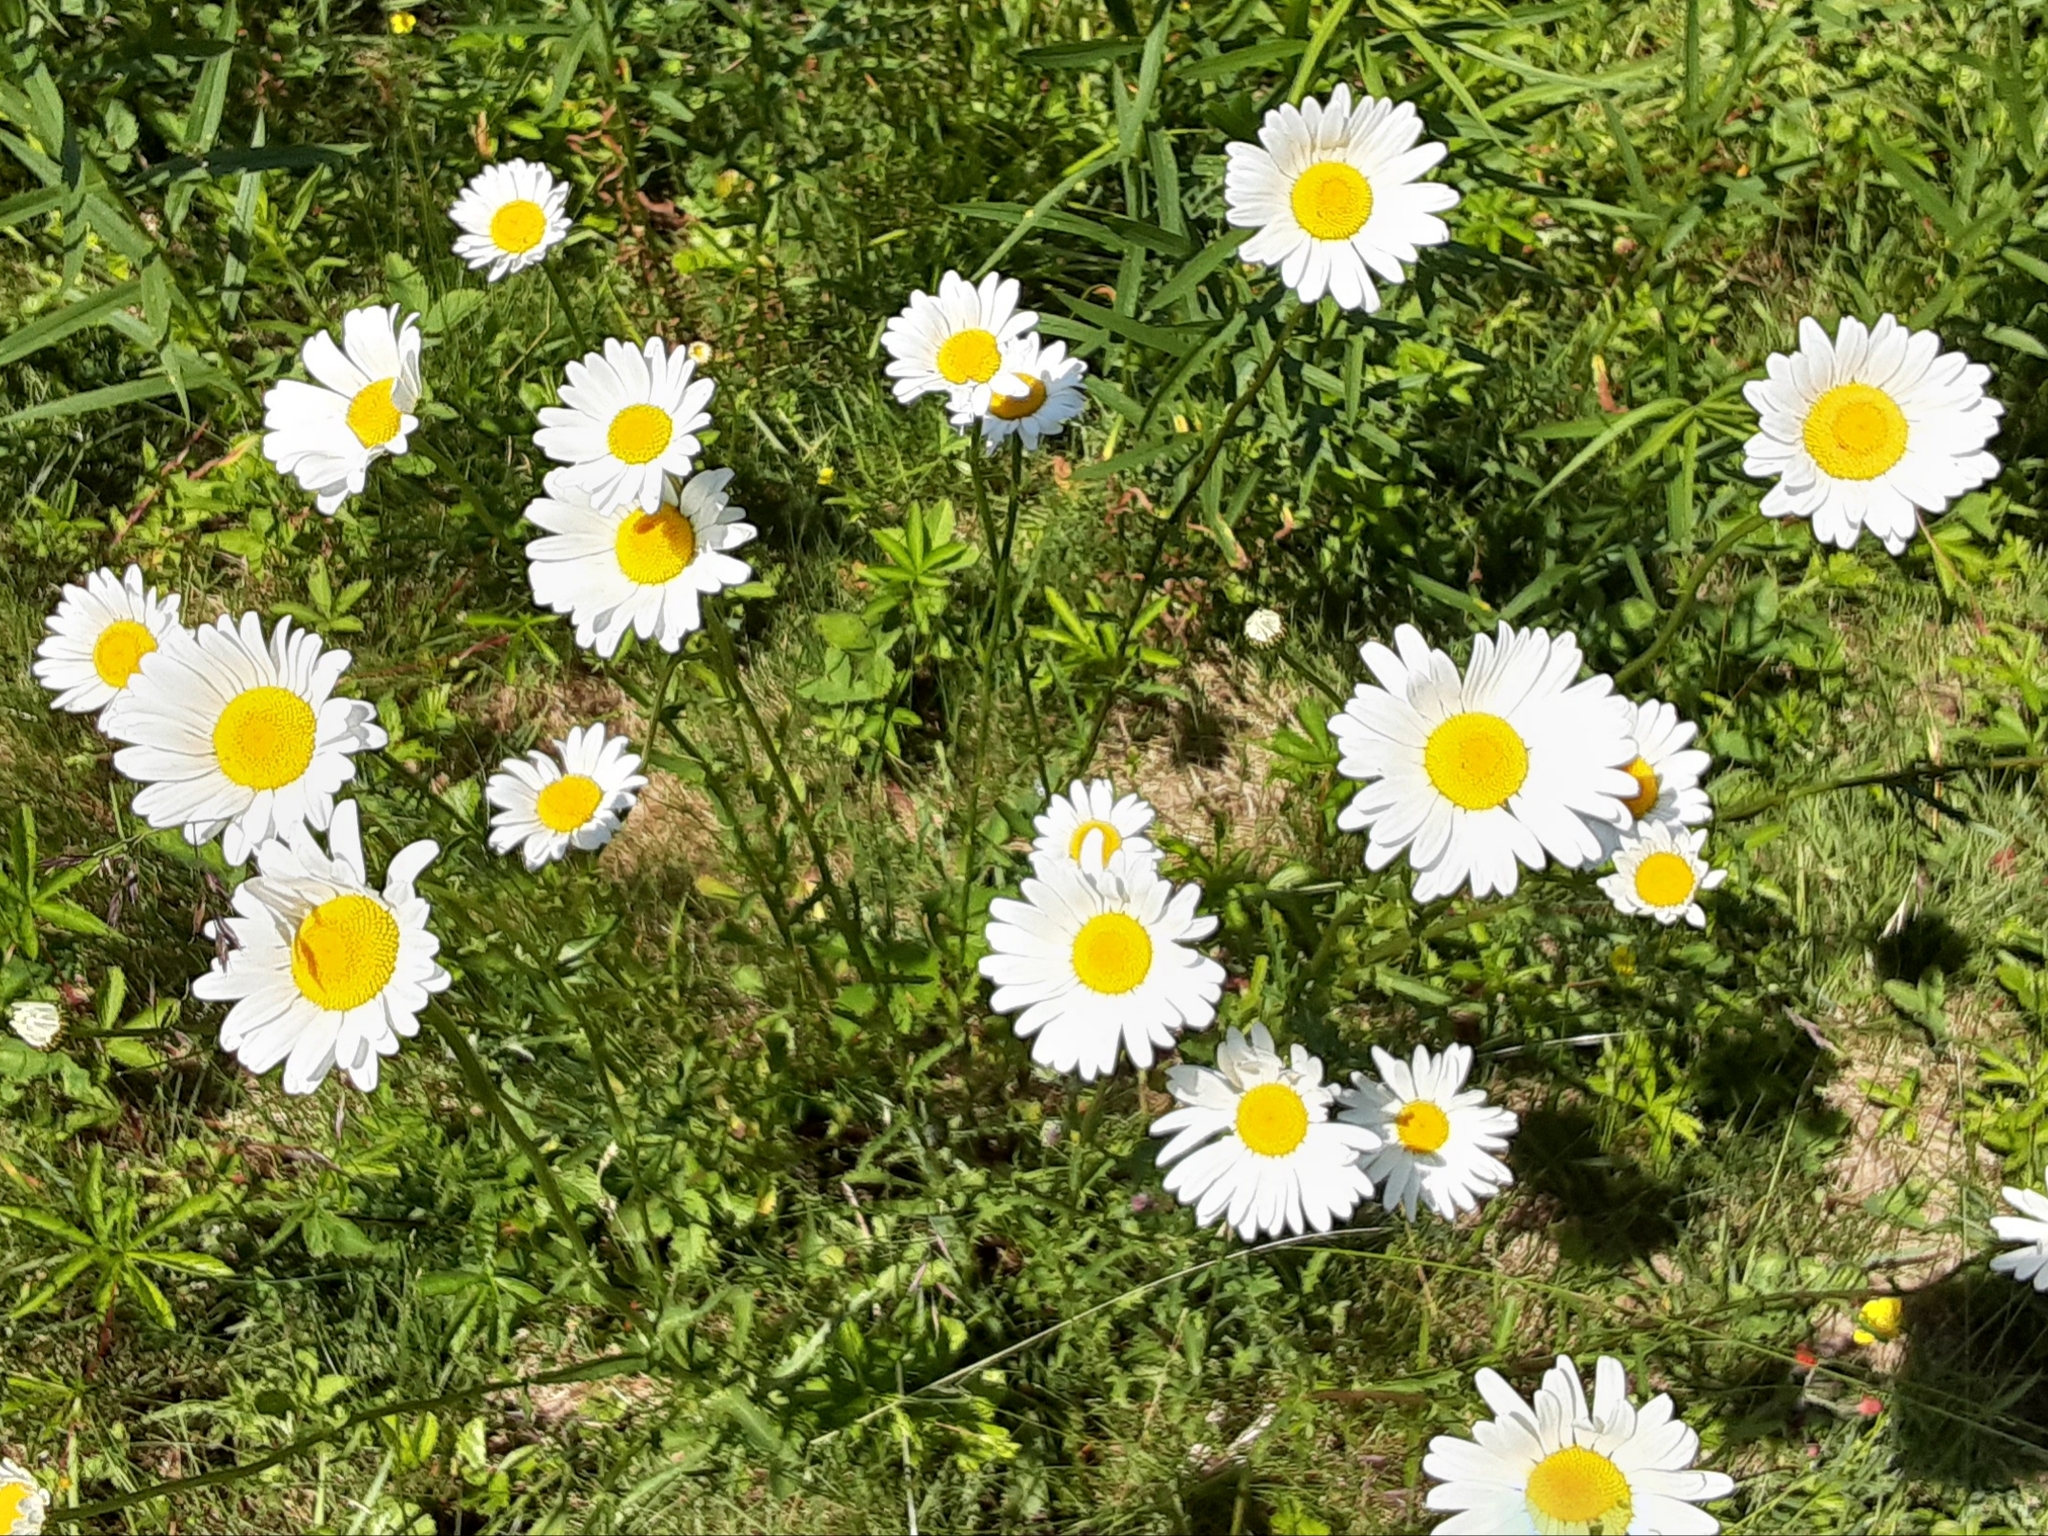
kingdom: Plantae
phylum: Tracheophyta
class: Magnoliopsida
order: Asterales
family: Asteraceae
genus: Leucanthemum
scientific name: Leucanthemum vulgare
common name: Oxeye daisy
